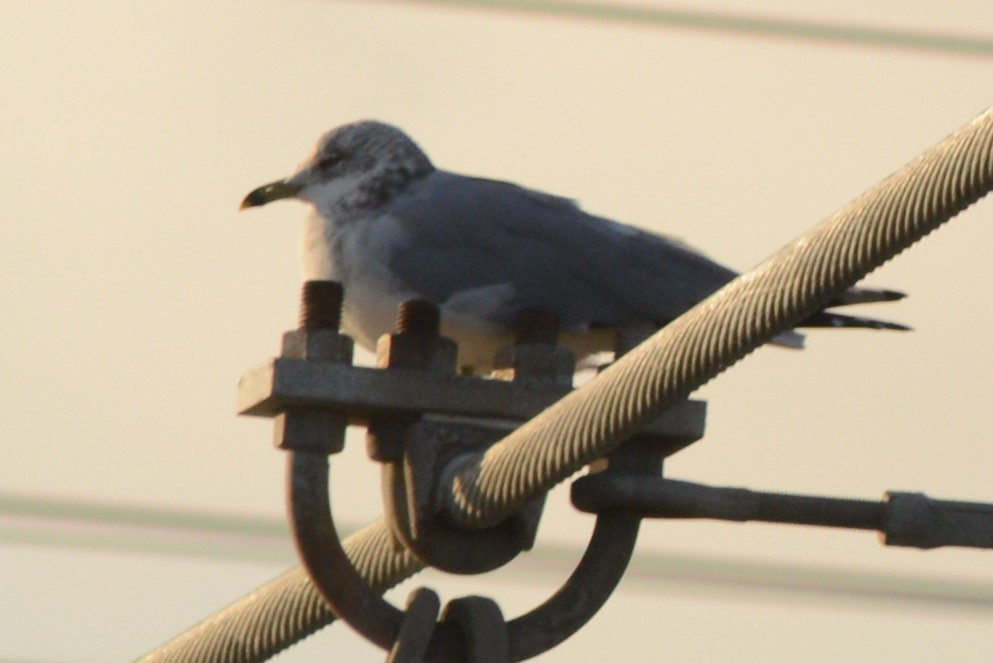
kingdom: Animalia
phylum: Chordata
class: Aves
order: Charadriiformes
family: Laridae
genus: Larus
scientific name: Larus delawarensis
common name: Ring-billed gull
